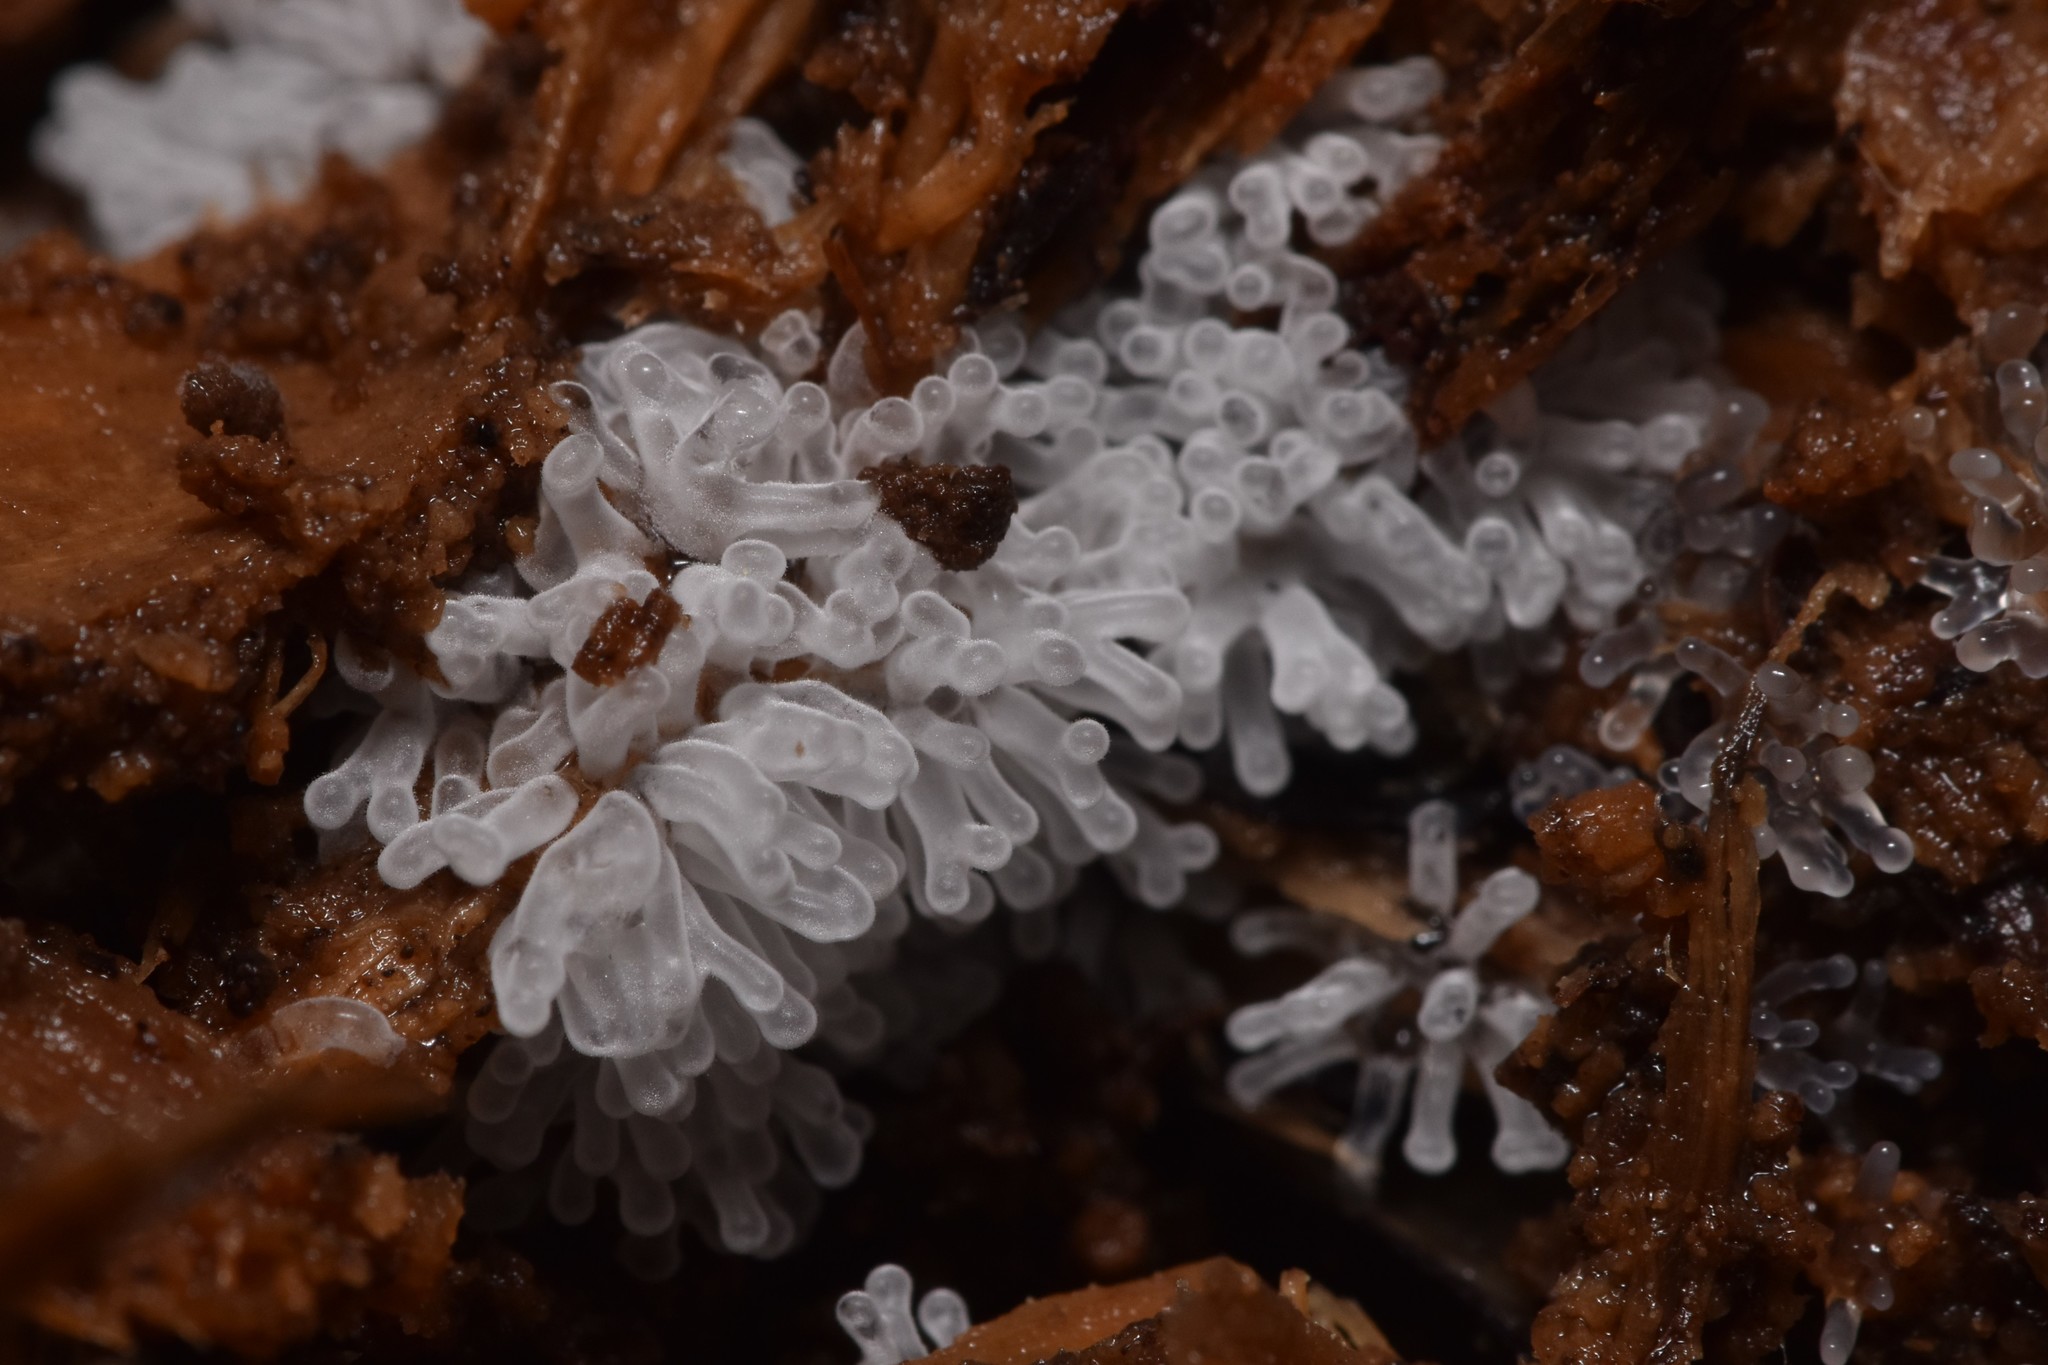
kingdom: Protozoa
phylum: Mycetozoa
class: Protosteliomycetes
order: Ceratiomyxales
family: Ceratiomyxaceae
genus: Ceratiomyxa
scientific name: Ceratiomyxa fruticulosa
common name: Honeycomb coral slime mold
